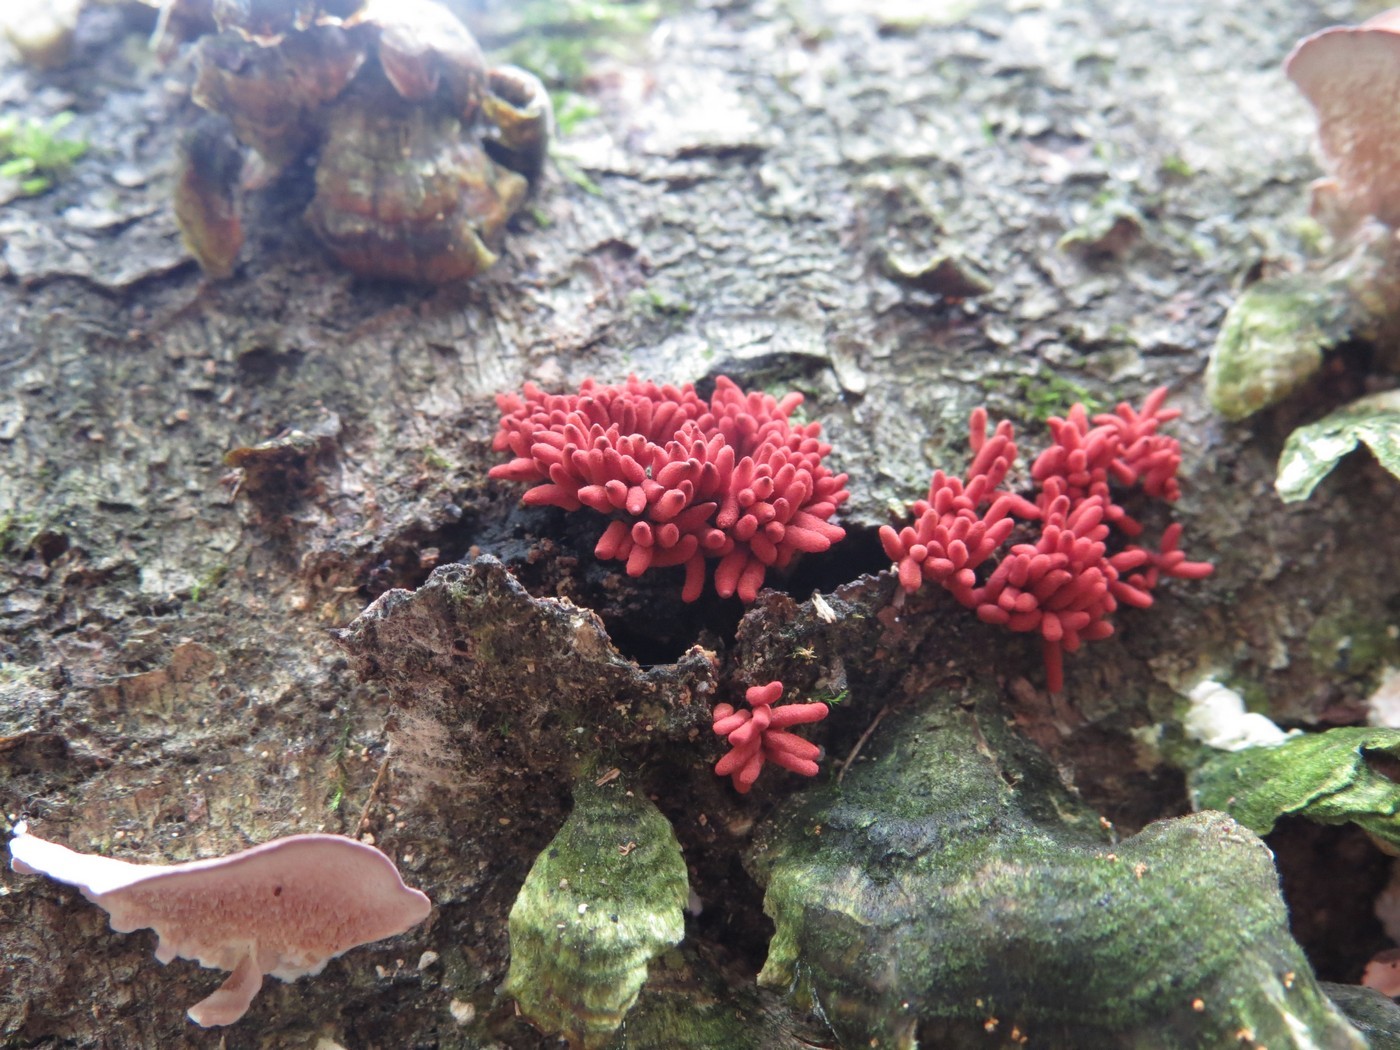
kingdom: Protozoa
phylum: Mycetozoa
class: Myxomycetes
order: Trichiales
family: Arcyriaceae
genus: Arcyria
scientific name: Arcyria denudata
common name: Carnival candy slime mold
